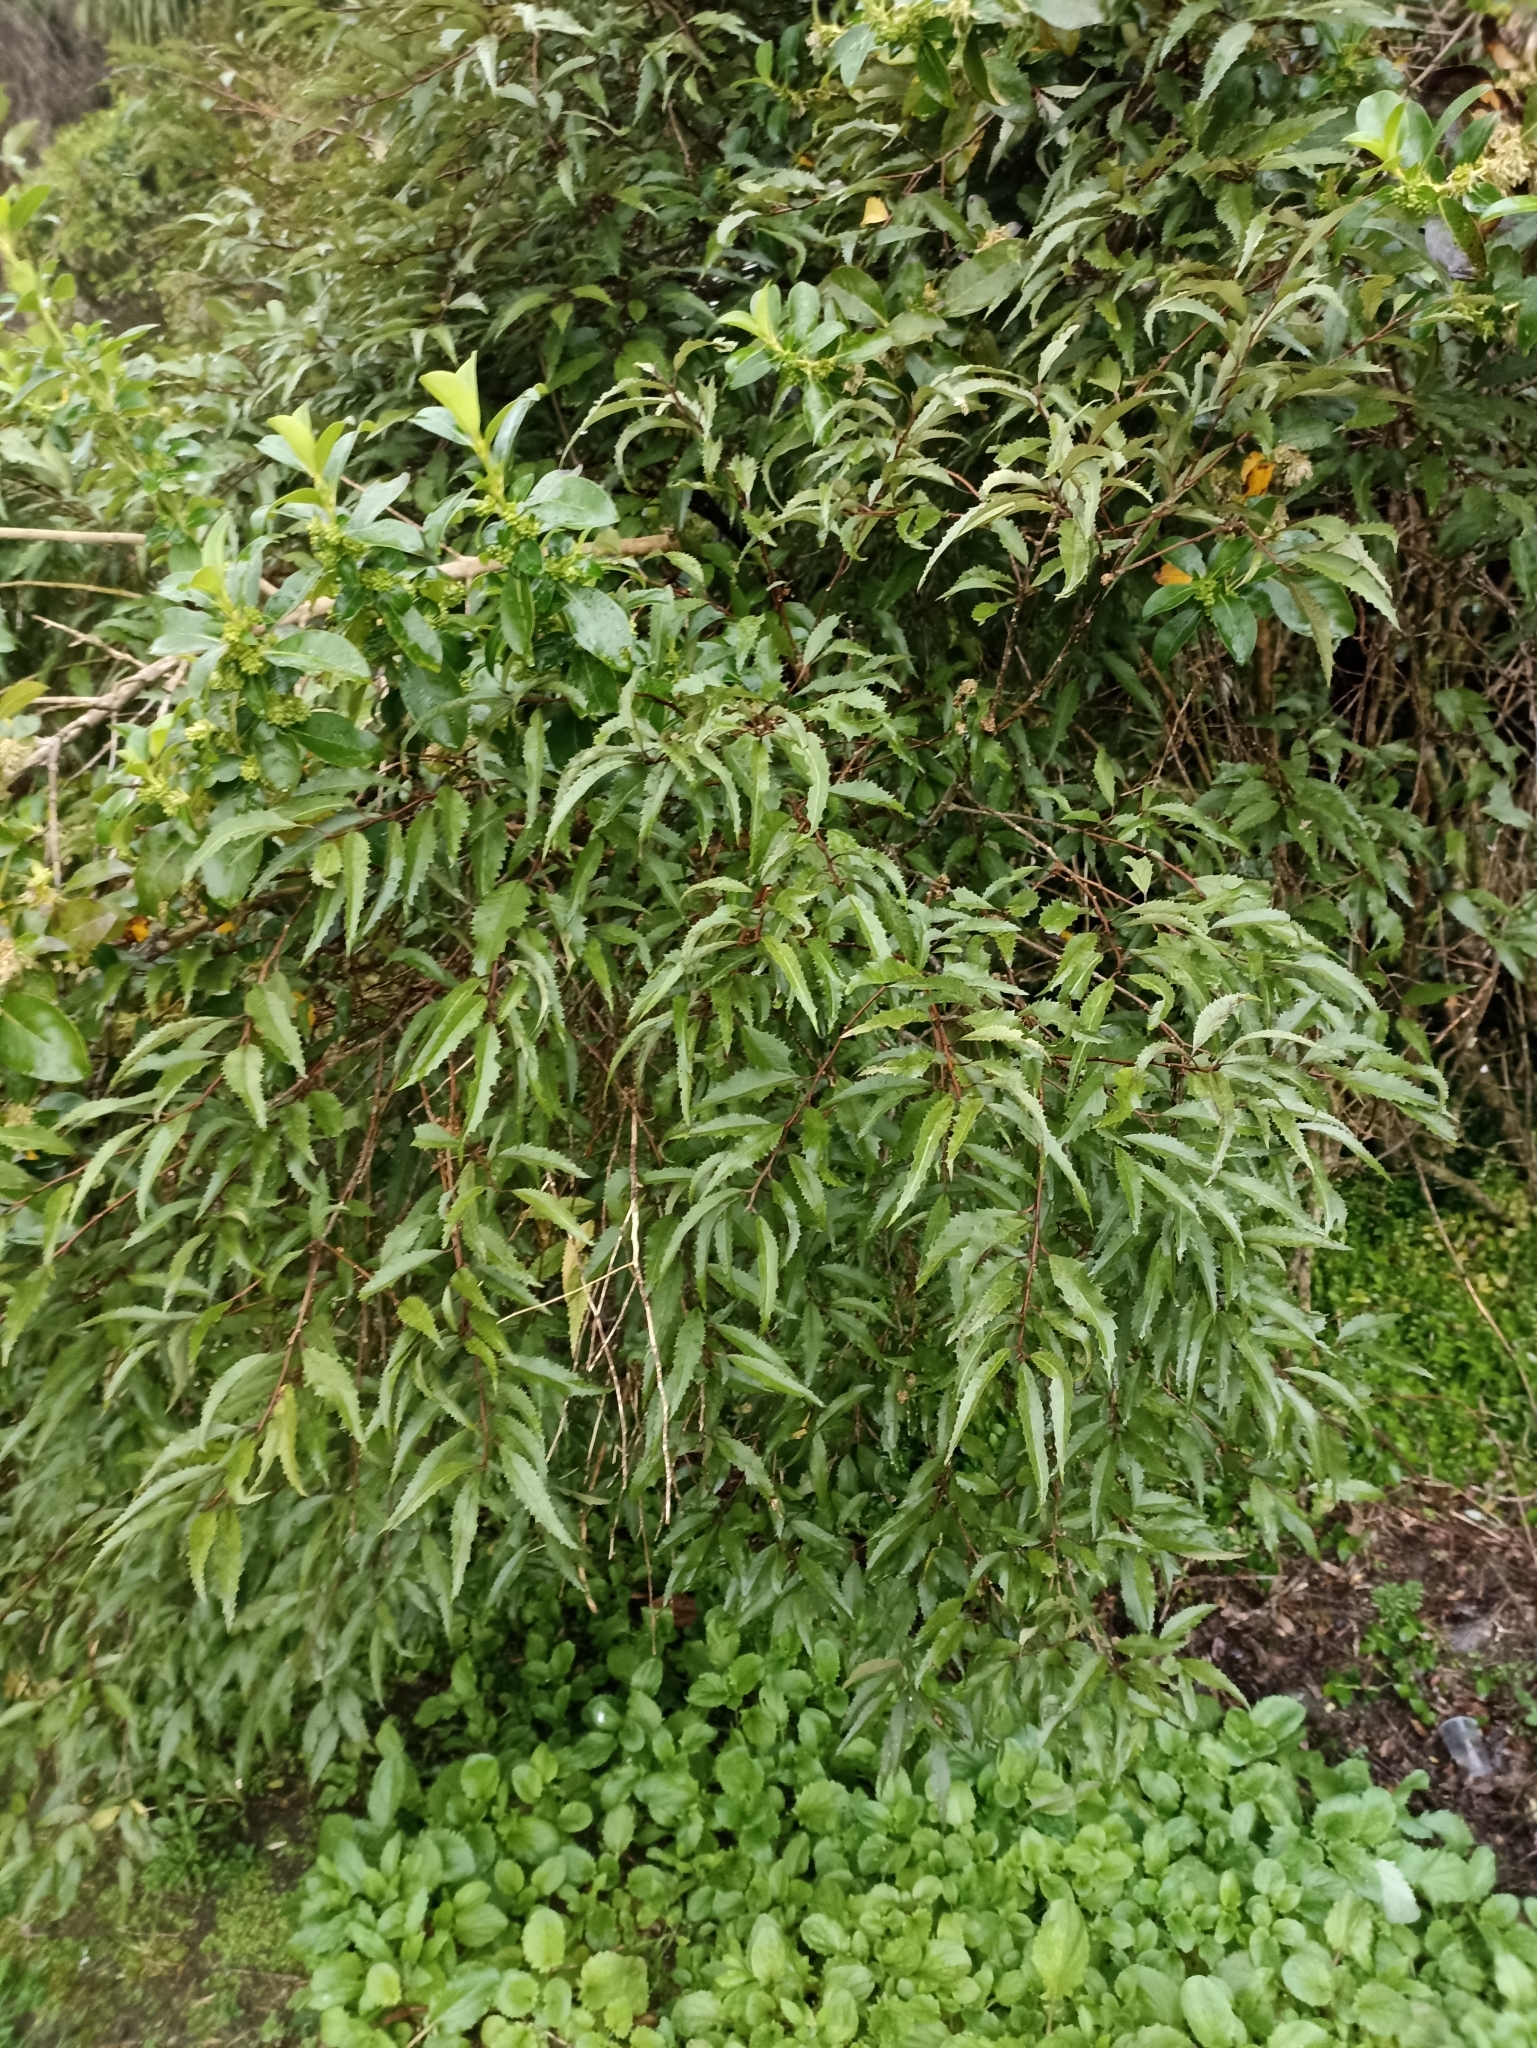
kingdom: Plantae
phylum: Tracheophyta
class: Magnoliopsida
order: Malvales
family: Malvaceae
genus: Hoheria
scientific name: Hoheria sexstylosa
